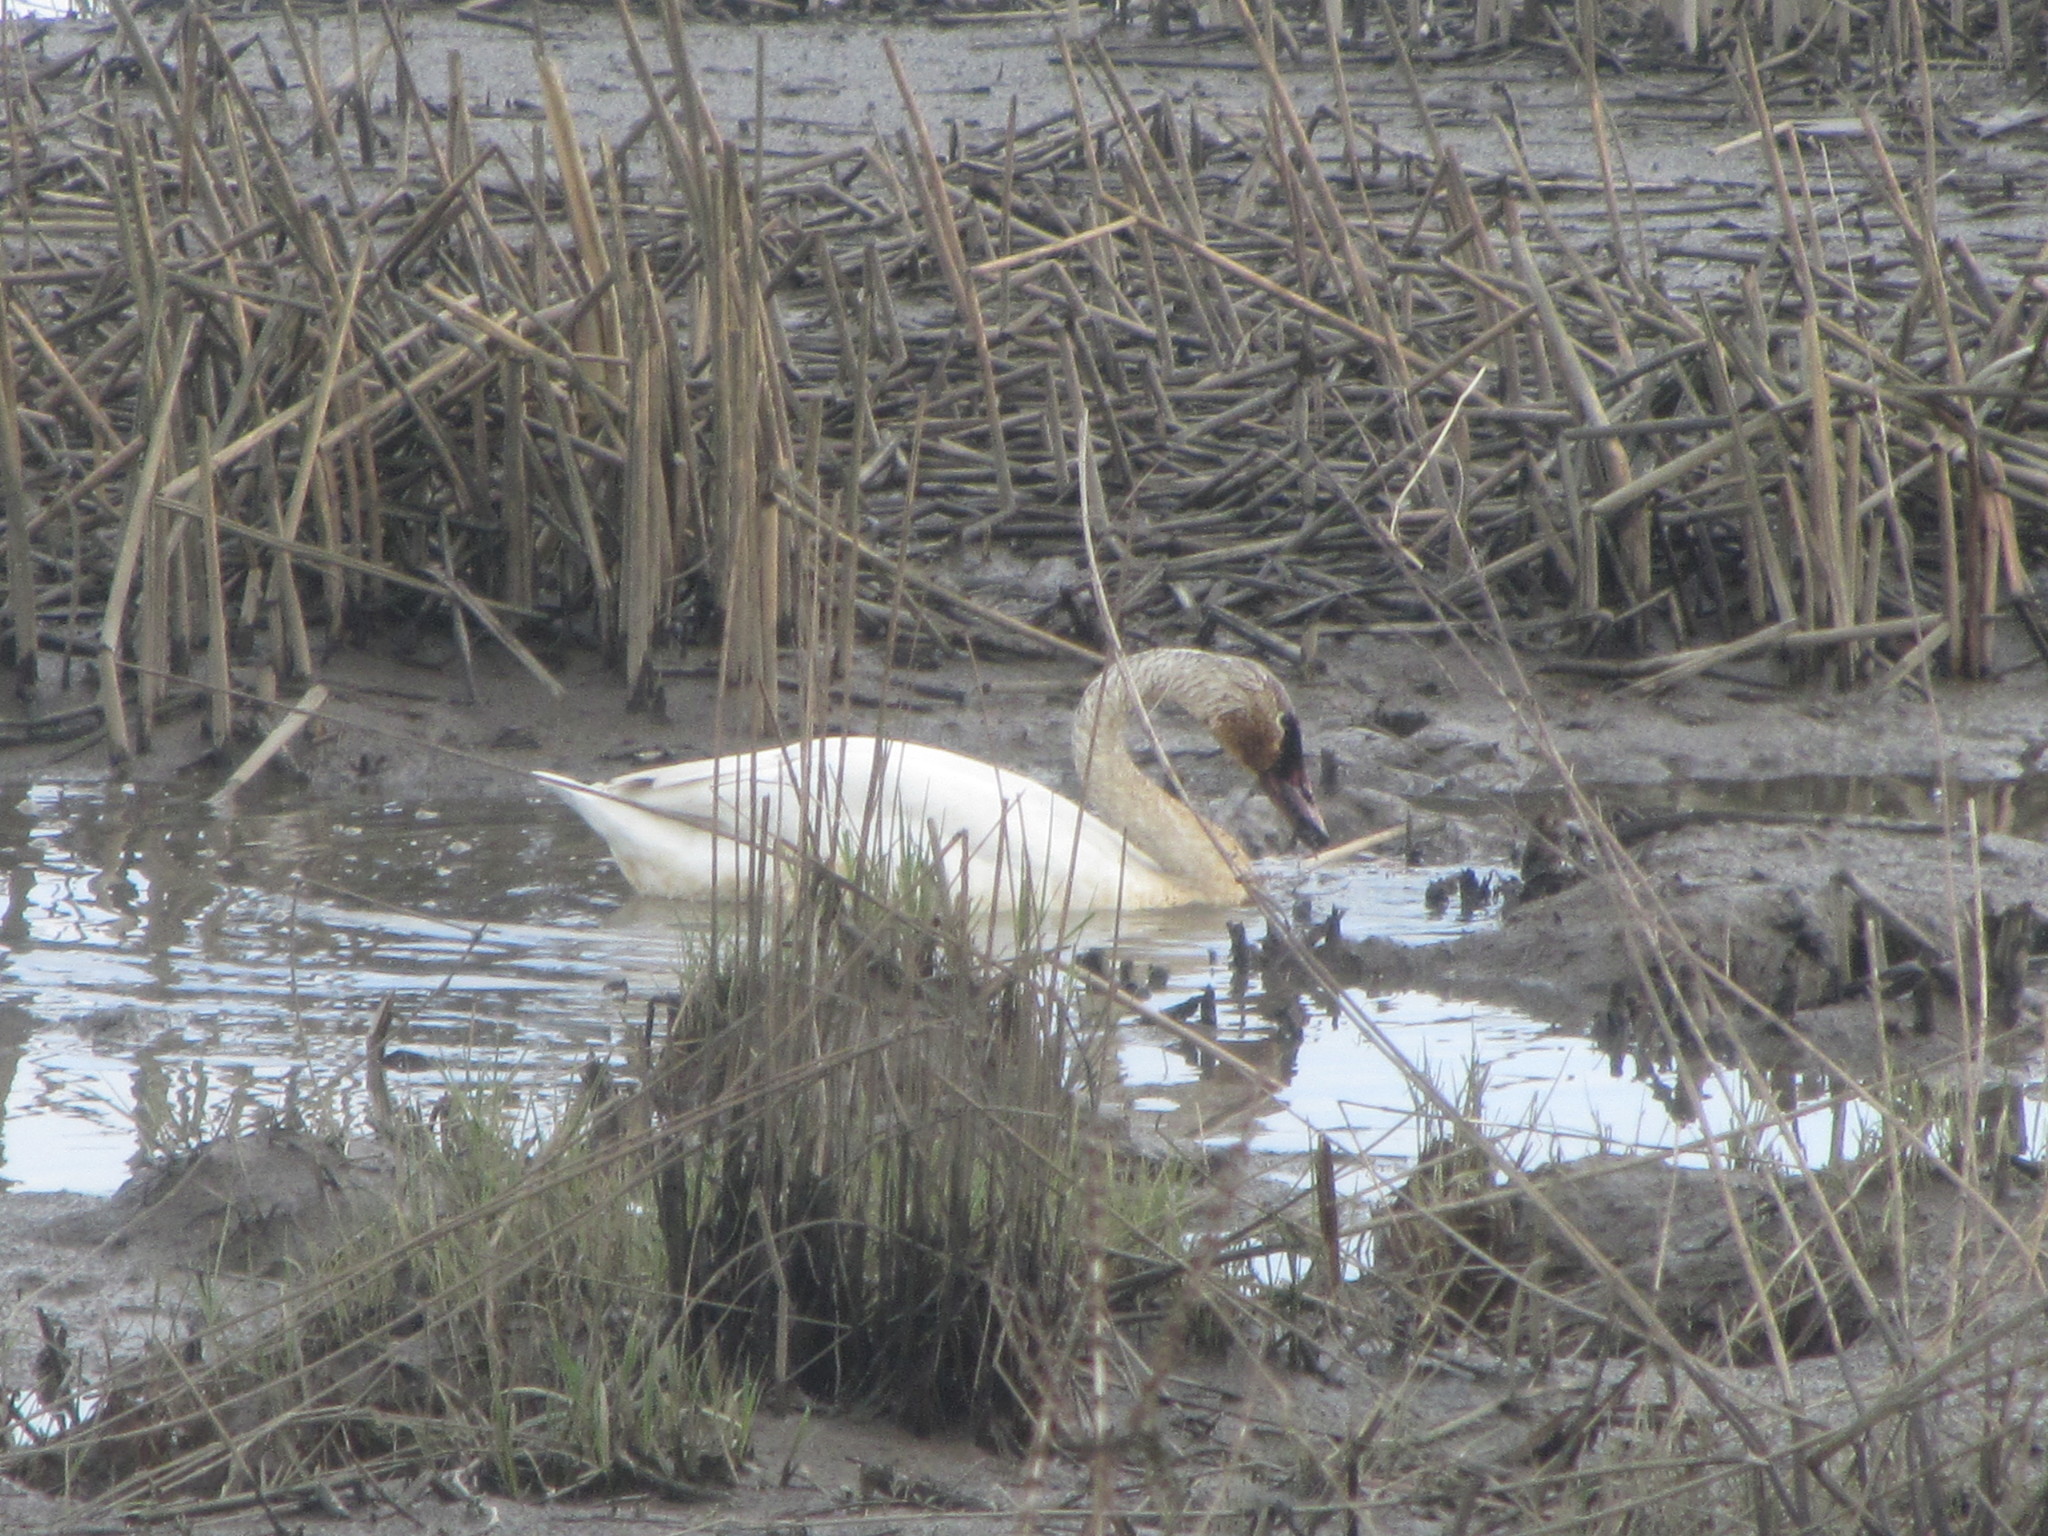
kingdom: Animalia
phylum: Chordata
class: Aves
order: Anseriformes
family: Anatidae
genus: Cygnus
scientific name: Cygnus columbianus
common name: Tundra swan
